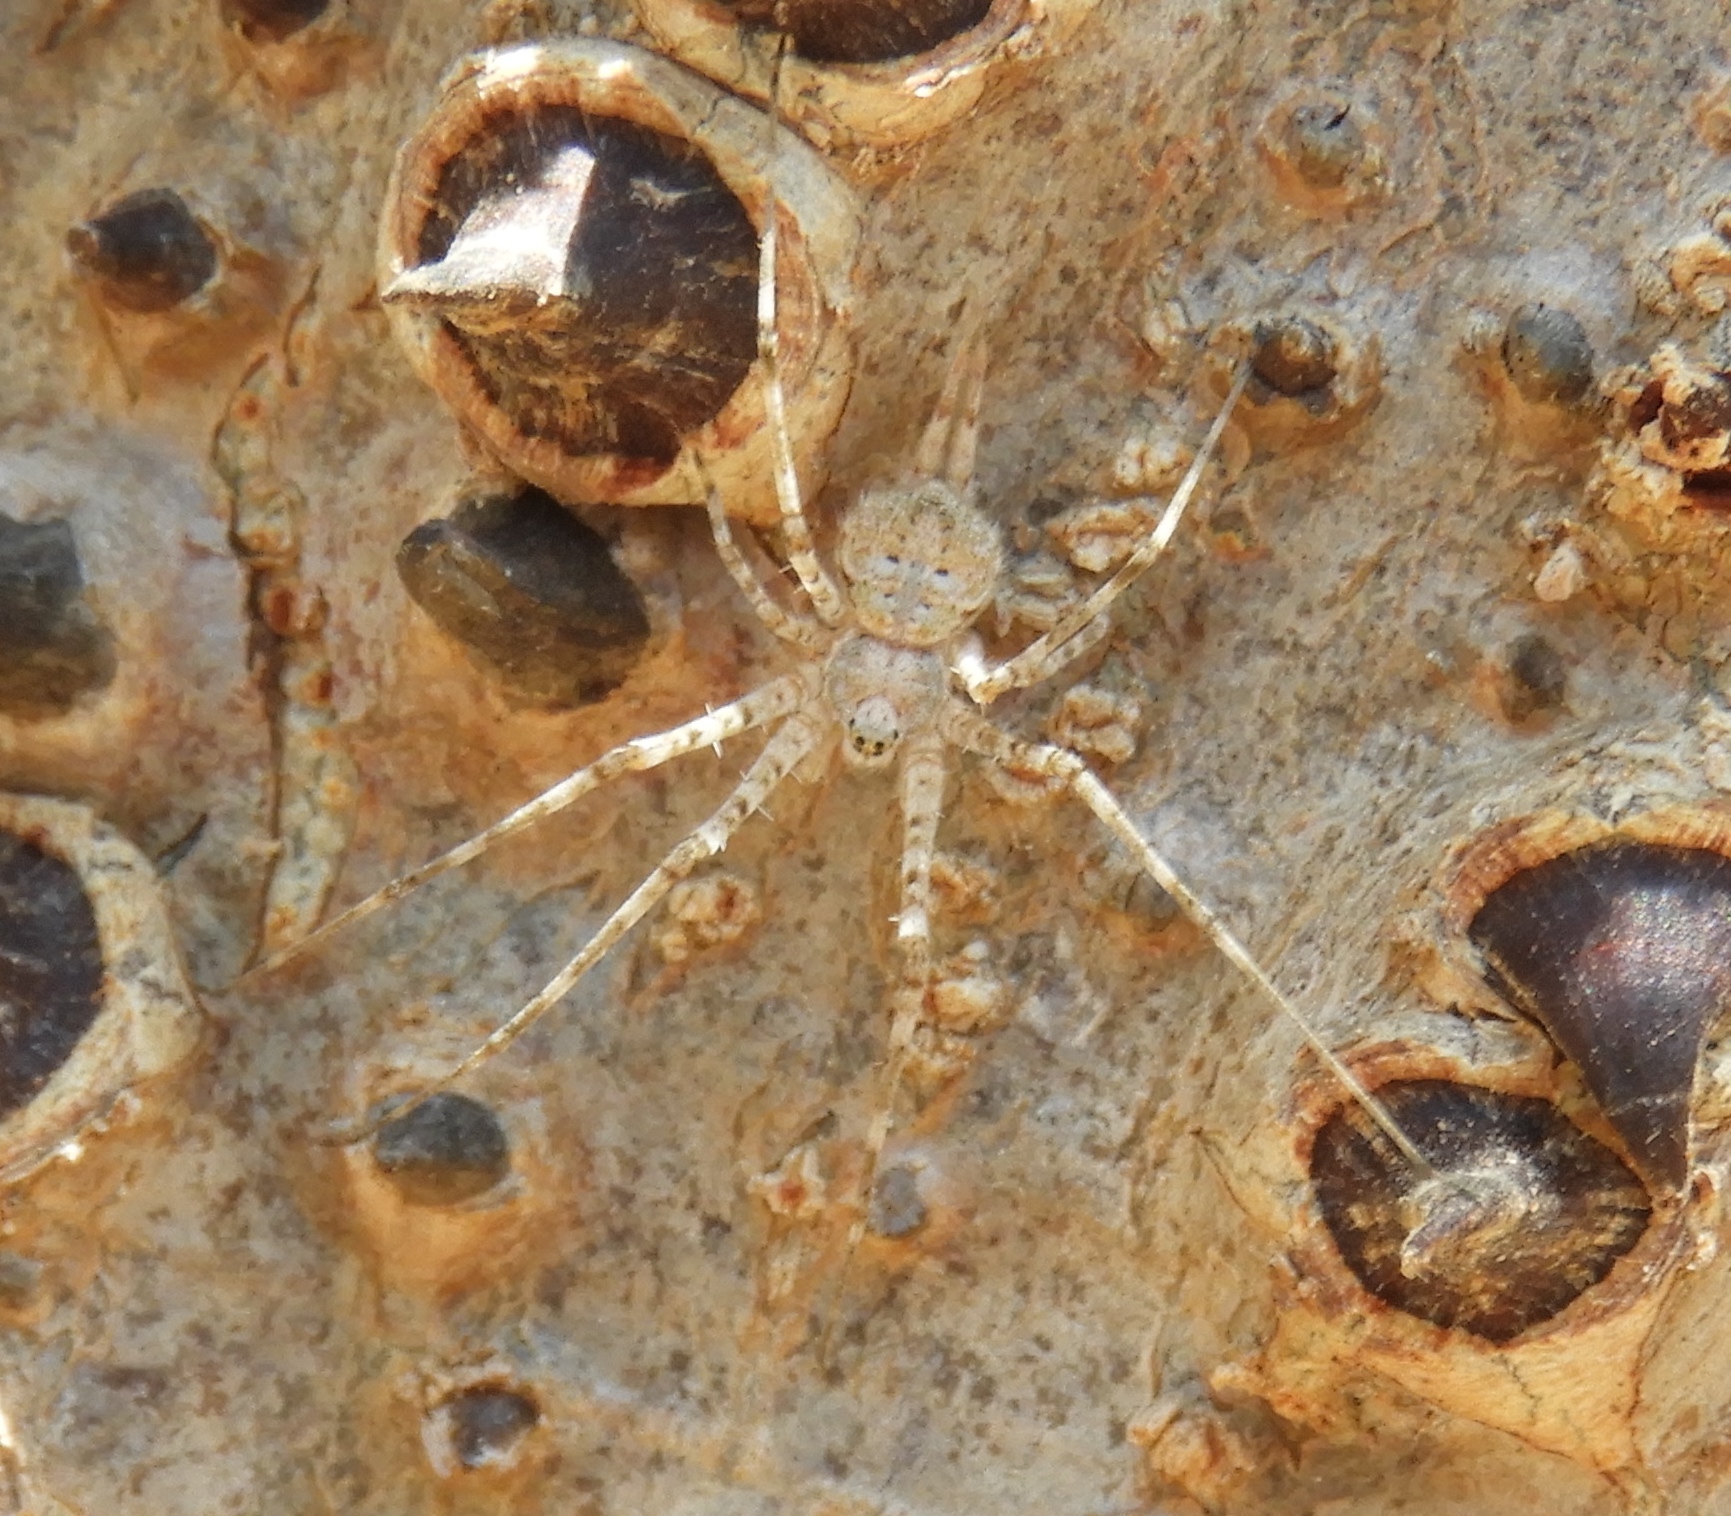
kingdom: Animalia
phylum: Arthropoda
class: Arachnida
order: Araneae
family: Hersiliidae
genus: Neotama
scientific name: Neotama mexicana
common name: Tree trunk spiders
